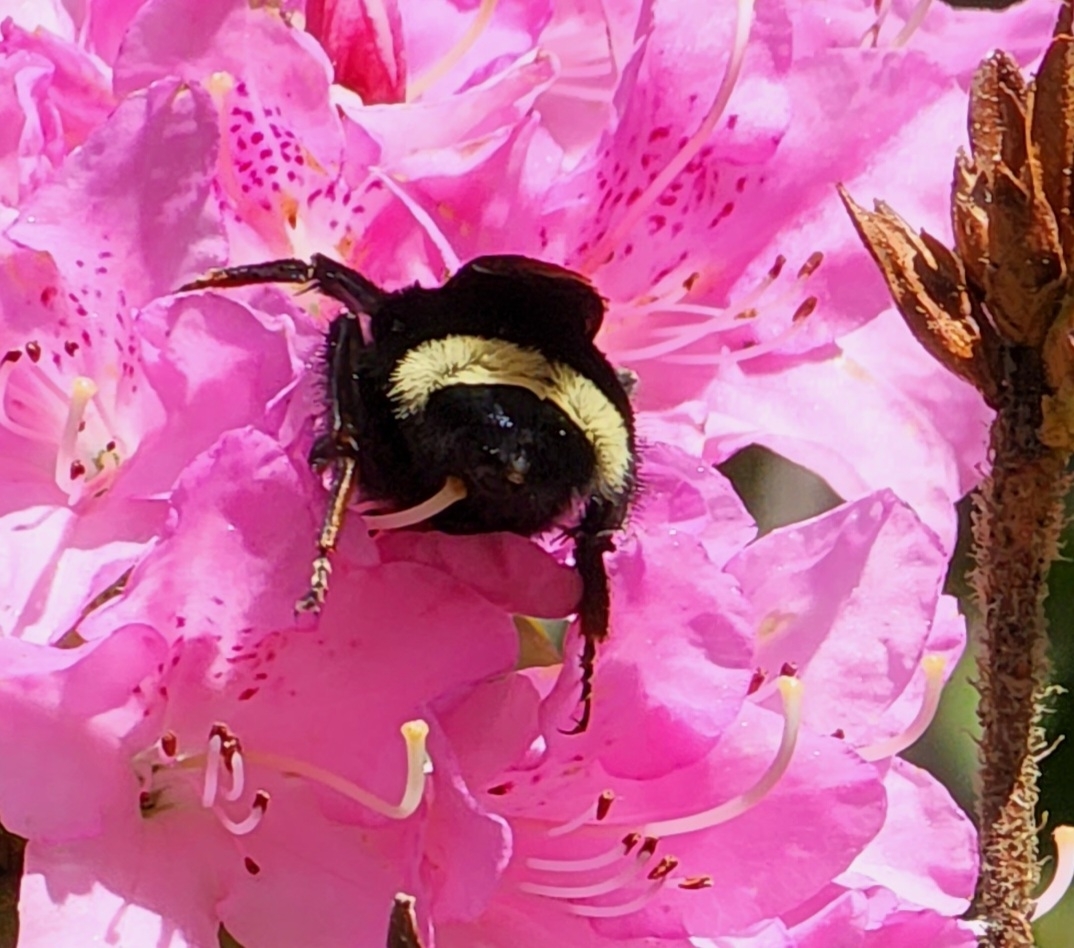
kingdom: Animalia
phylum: Arthropoda
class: Insecta
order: Hymenoptera
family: Apidae
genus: Bombus
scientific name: Bombus vosnesenskii
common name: Vosnesensky bumble bee
